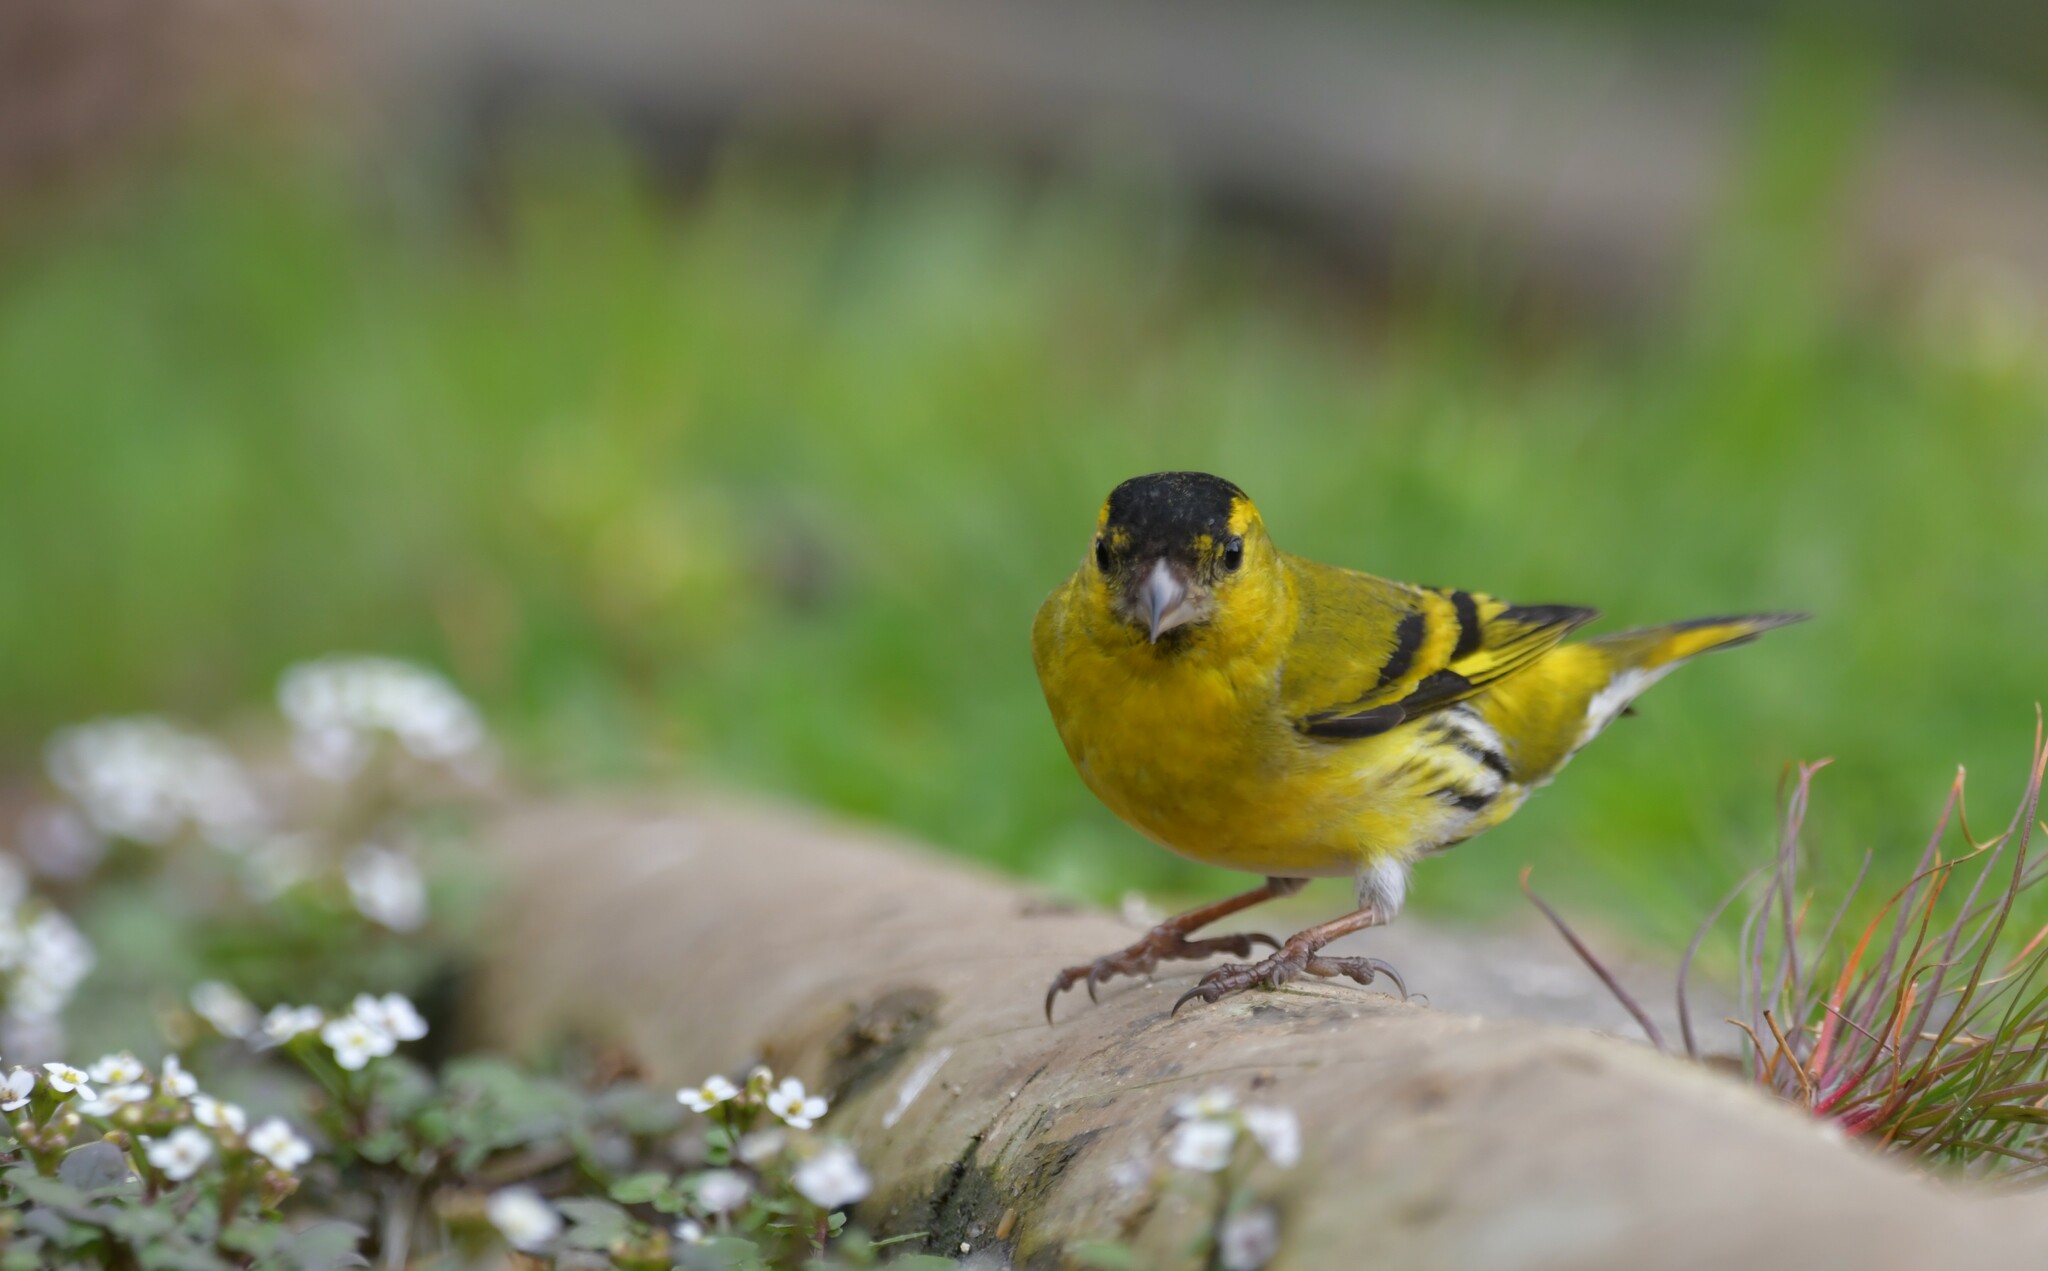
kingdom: Animalia
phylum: Chordata
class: Aves
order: Passeriformes
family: Fringillidae
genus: Spinus
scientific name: Spinus spinus
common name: Eurasian siskin
